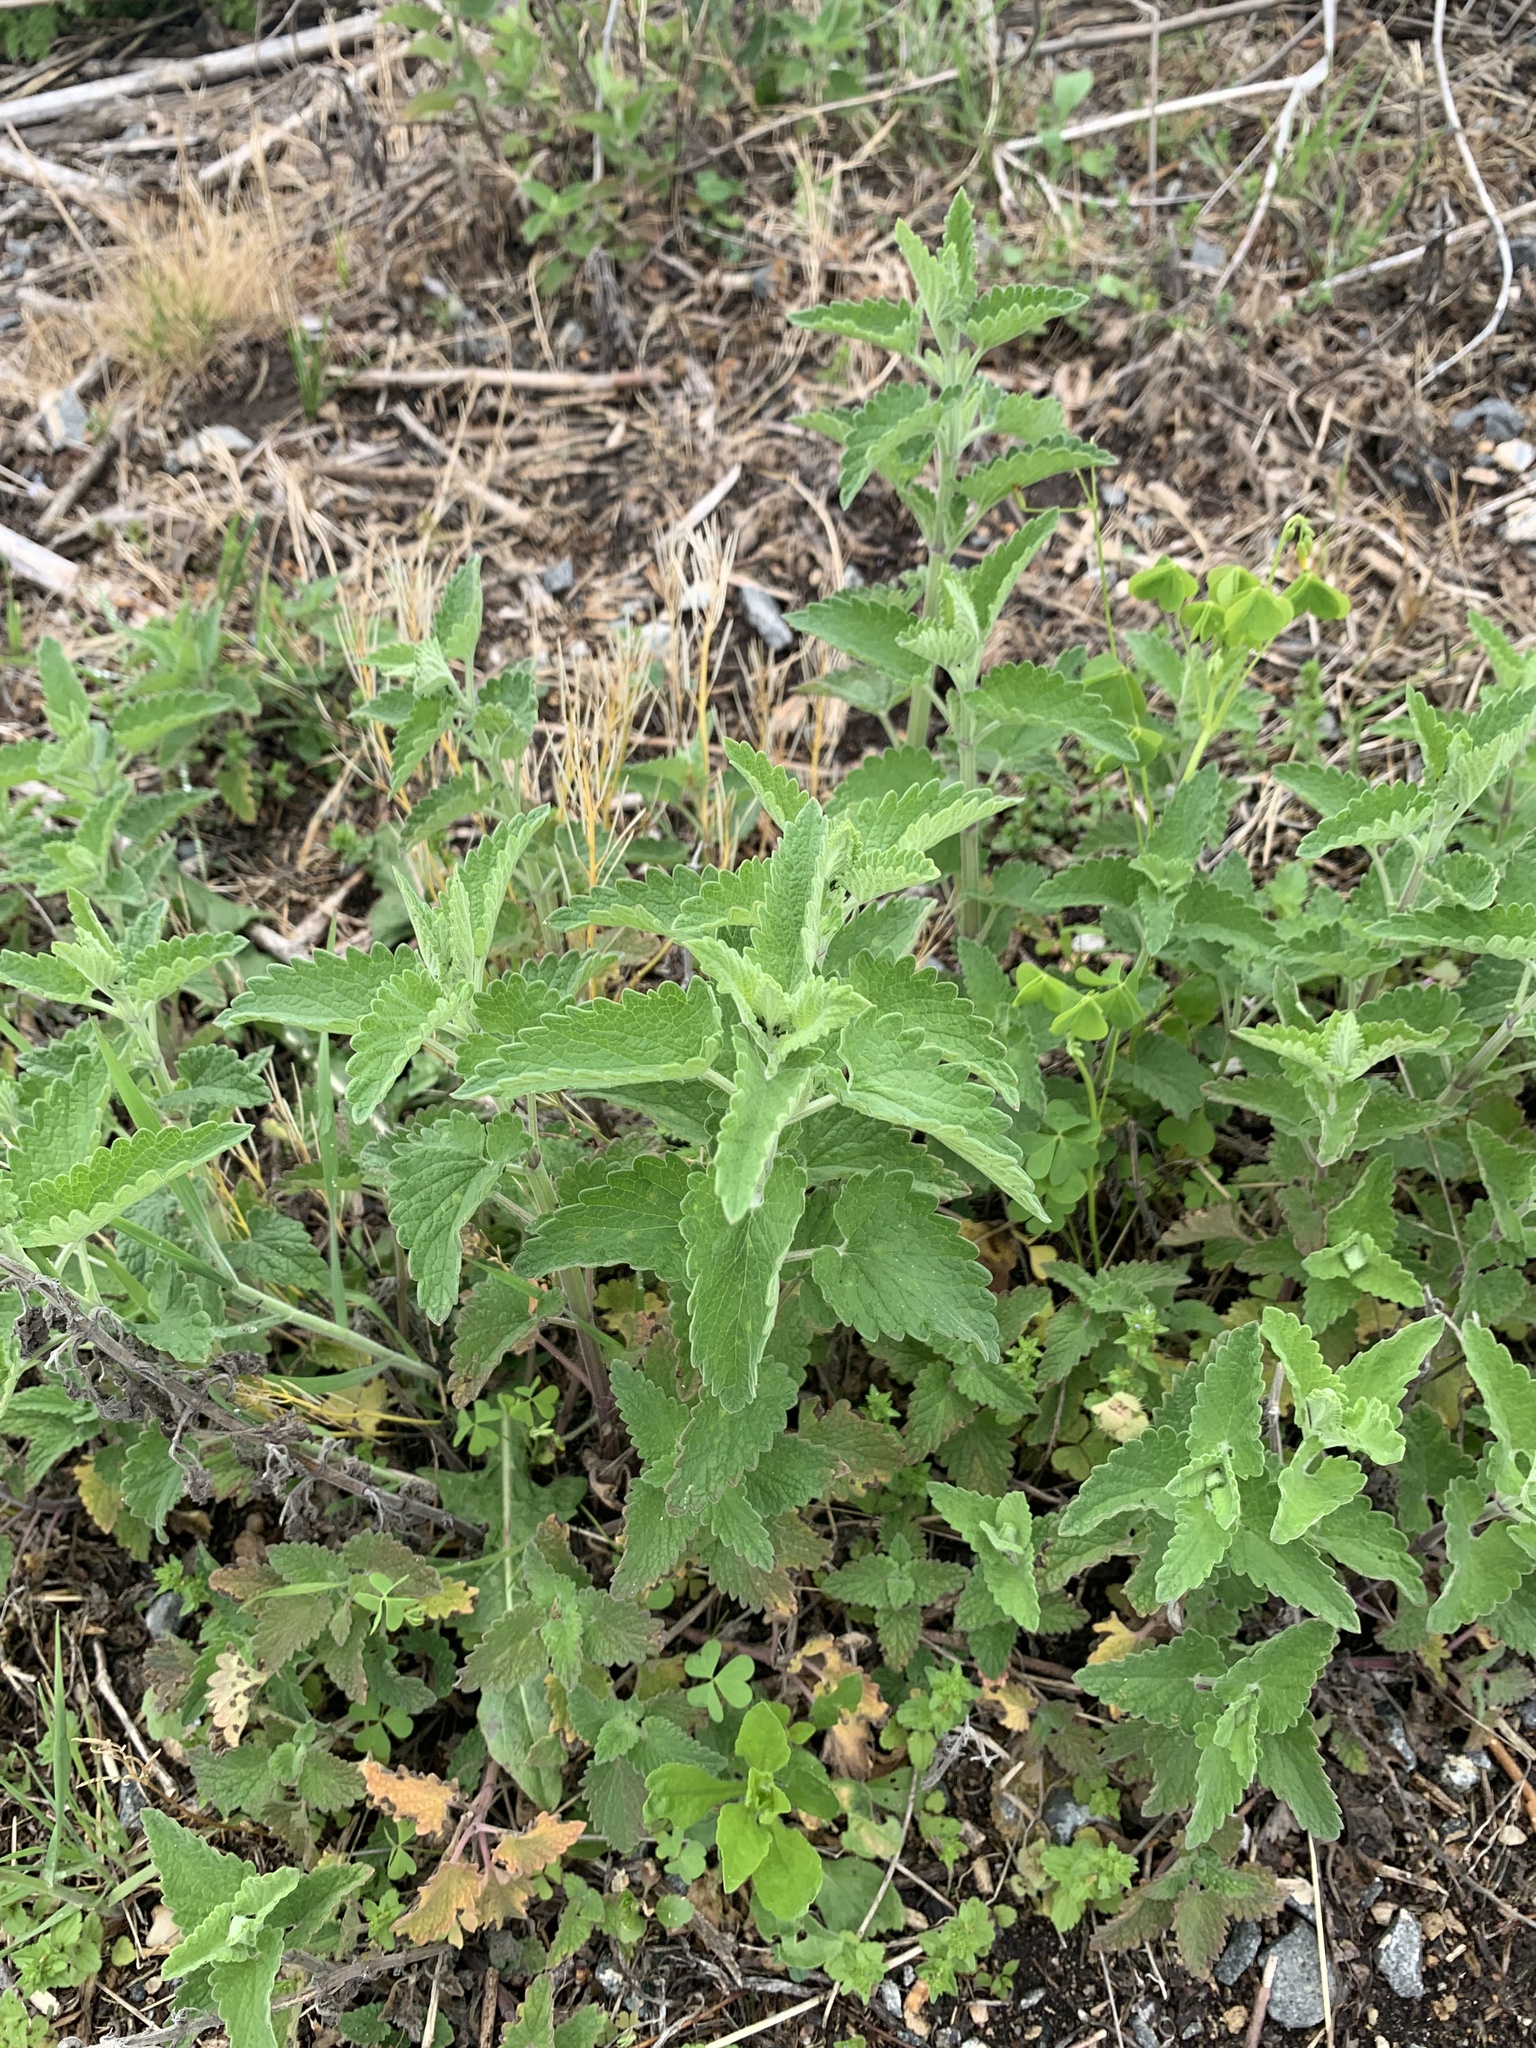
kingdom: Plantae
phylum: Tracheophyta
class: Magnoliopsida
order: Lamiales
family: Lamiaceae
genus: Nepeta
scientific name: Nepeta cataria
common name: Catnip
